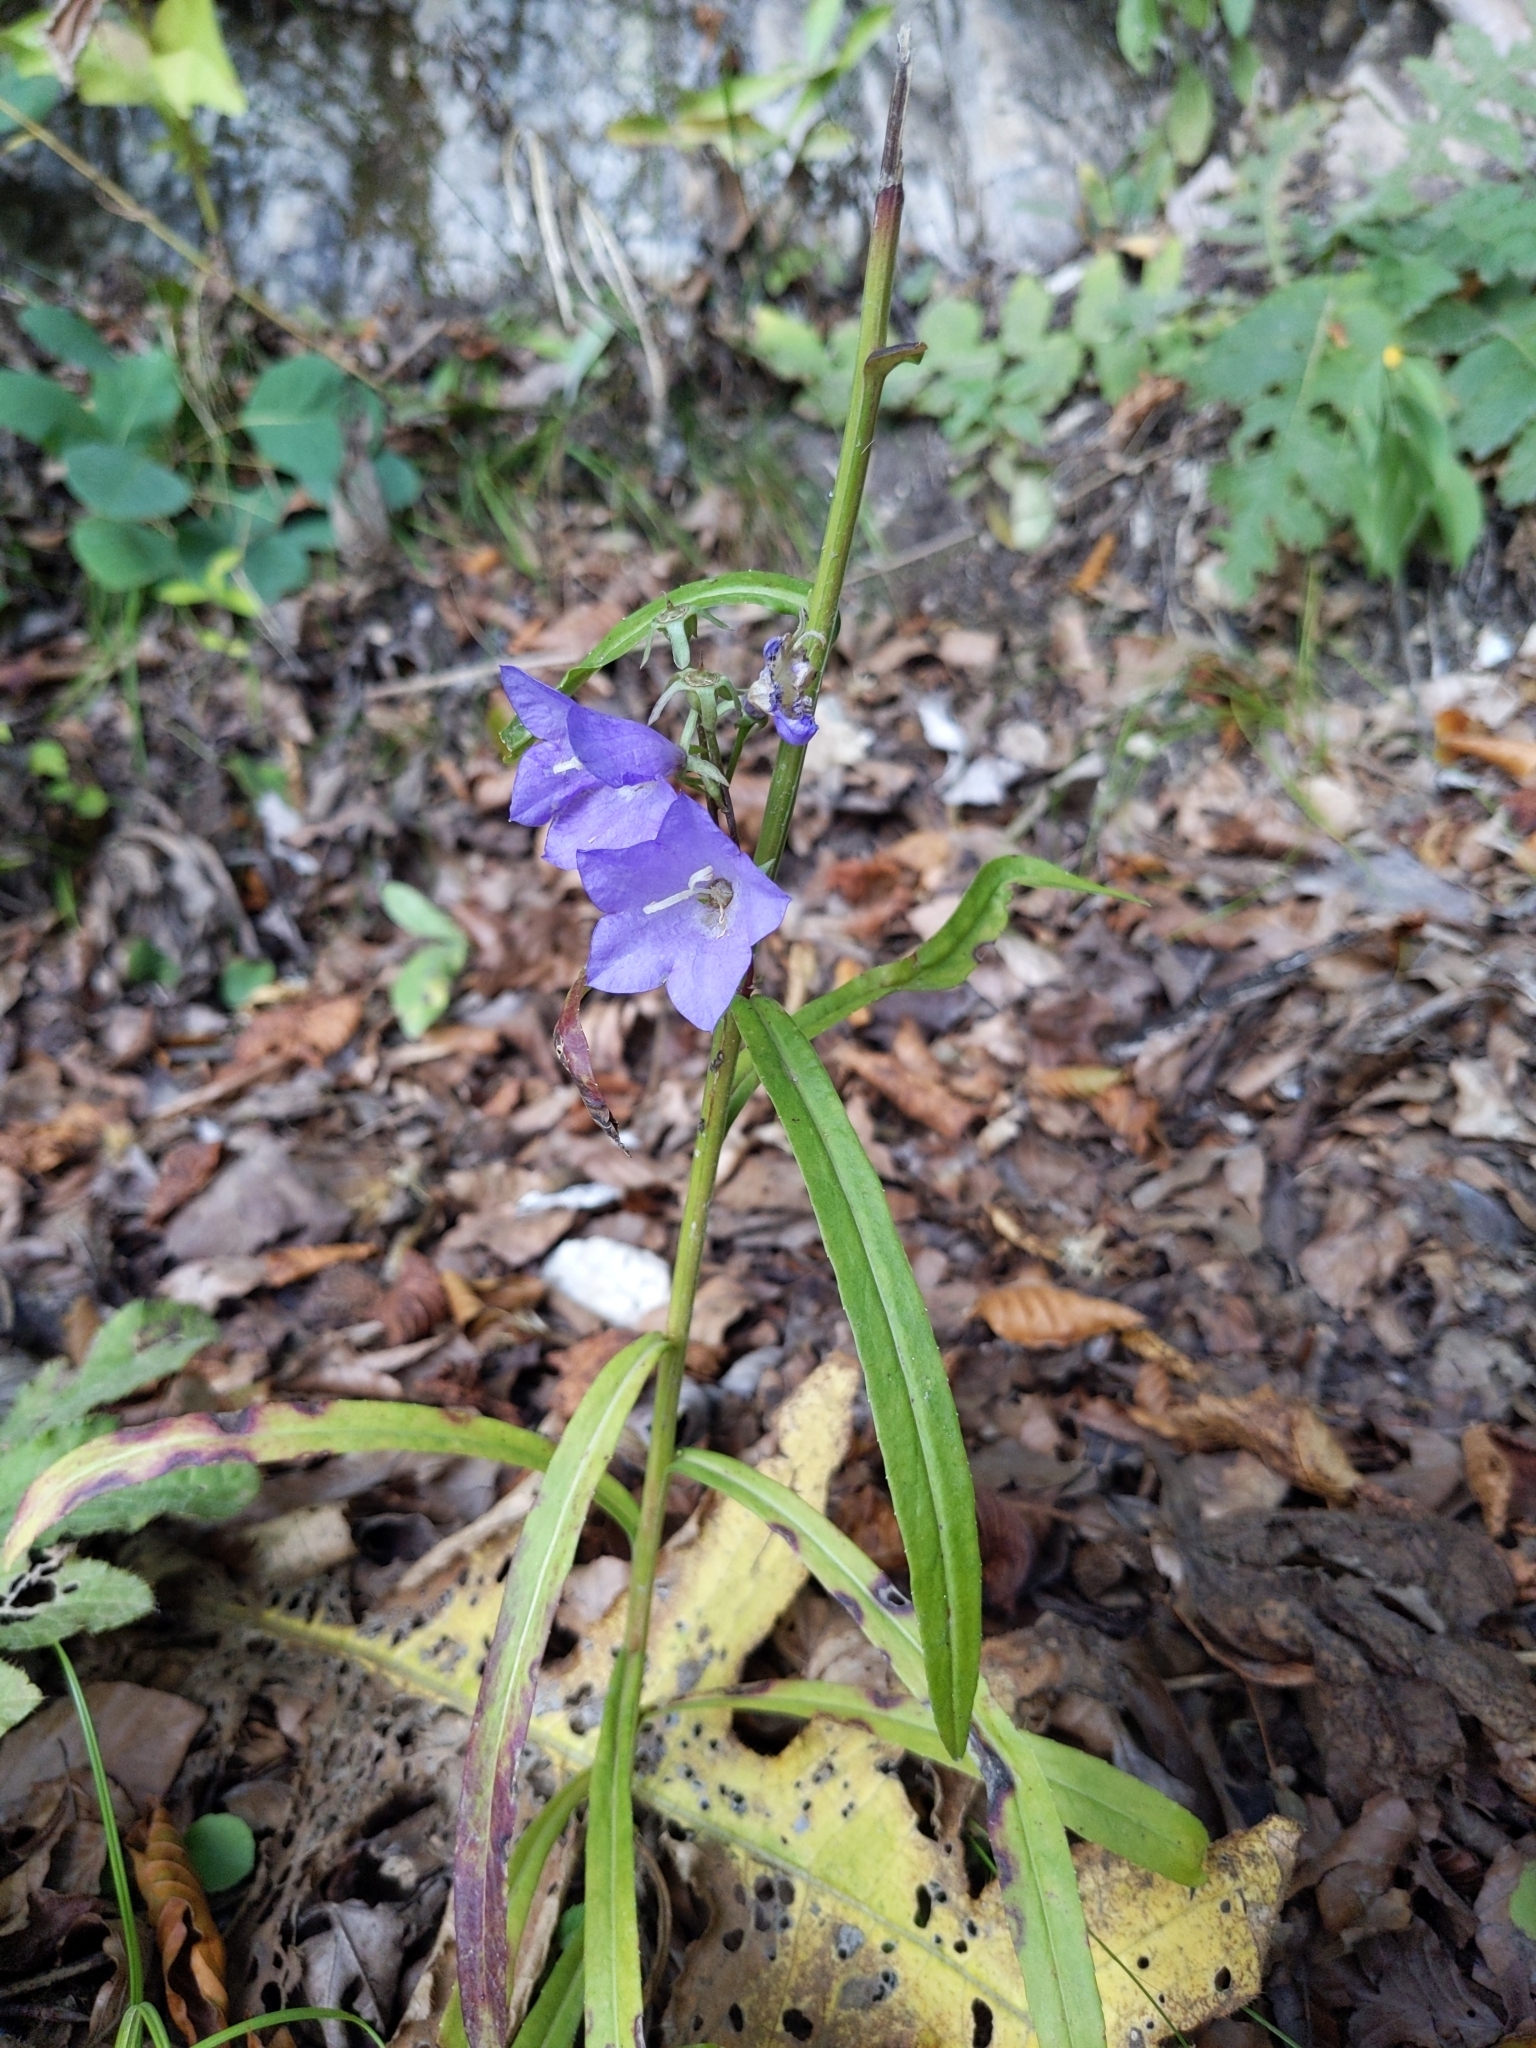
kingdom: Plantae
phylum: Tracheophyta
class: Magnoliopsida
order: Asterales
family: Campanulaceae
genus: Campanula
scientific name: Campanula persicifolia
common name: Peach-leaved bellflower
